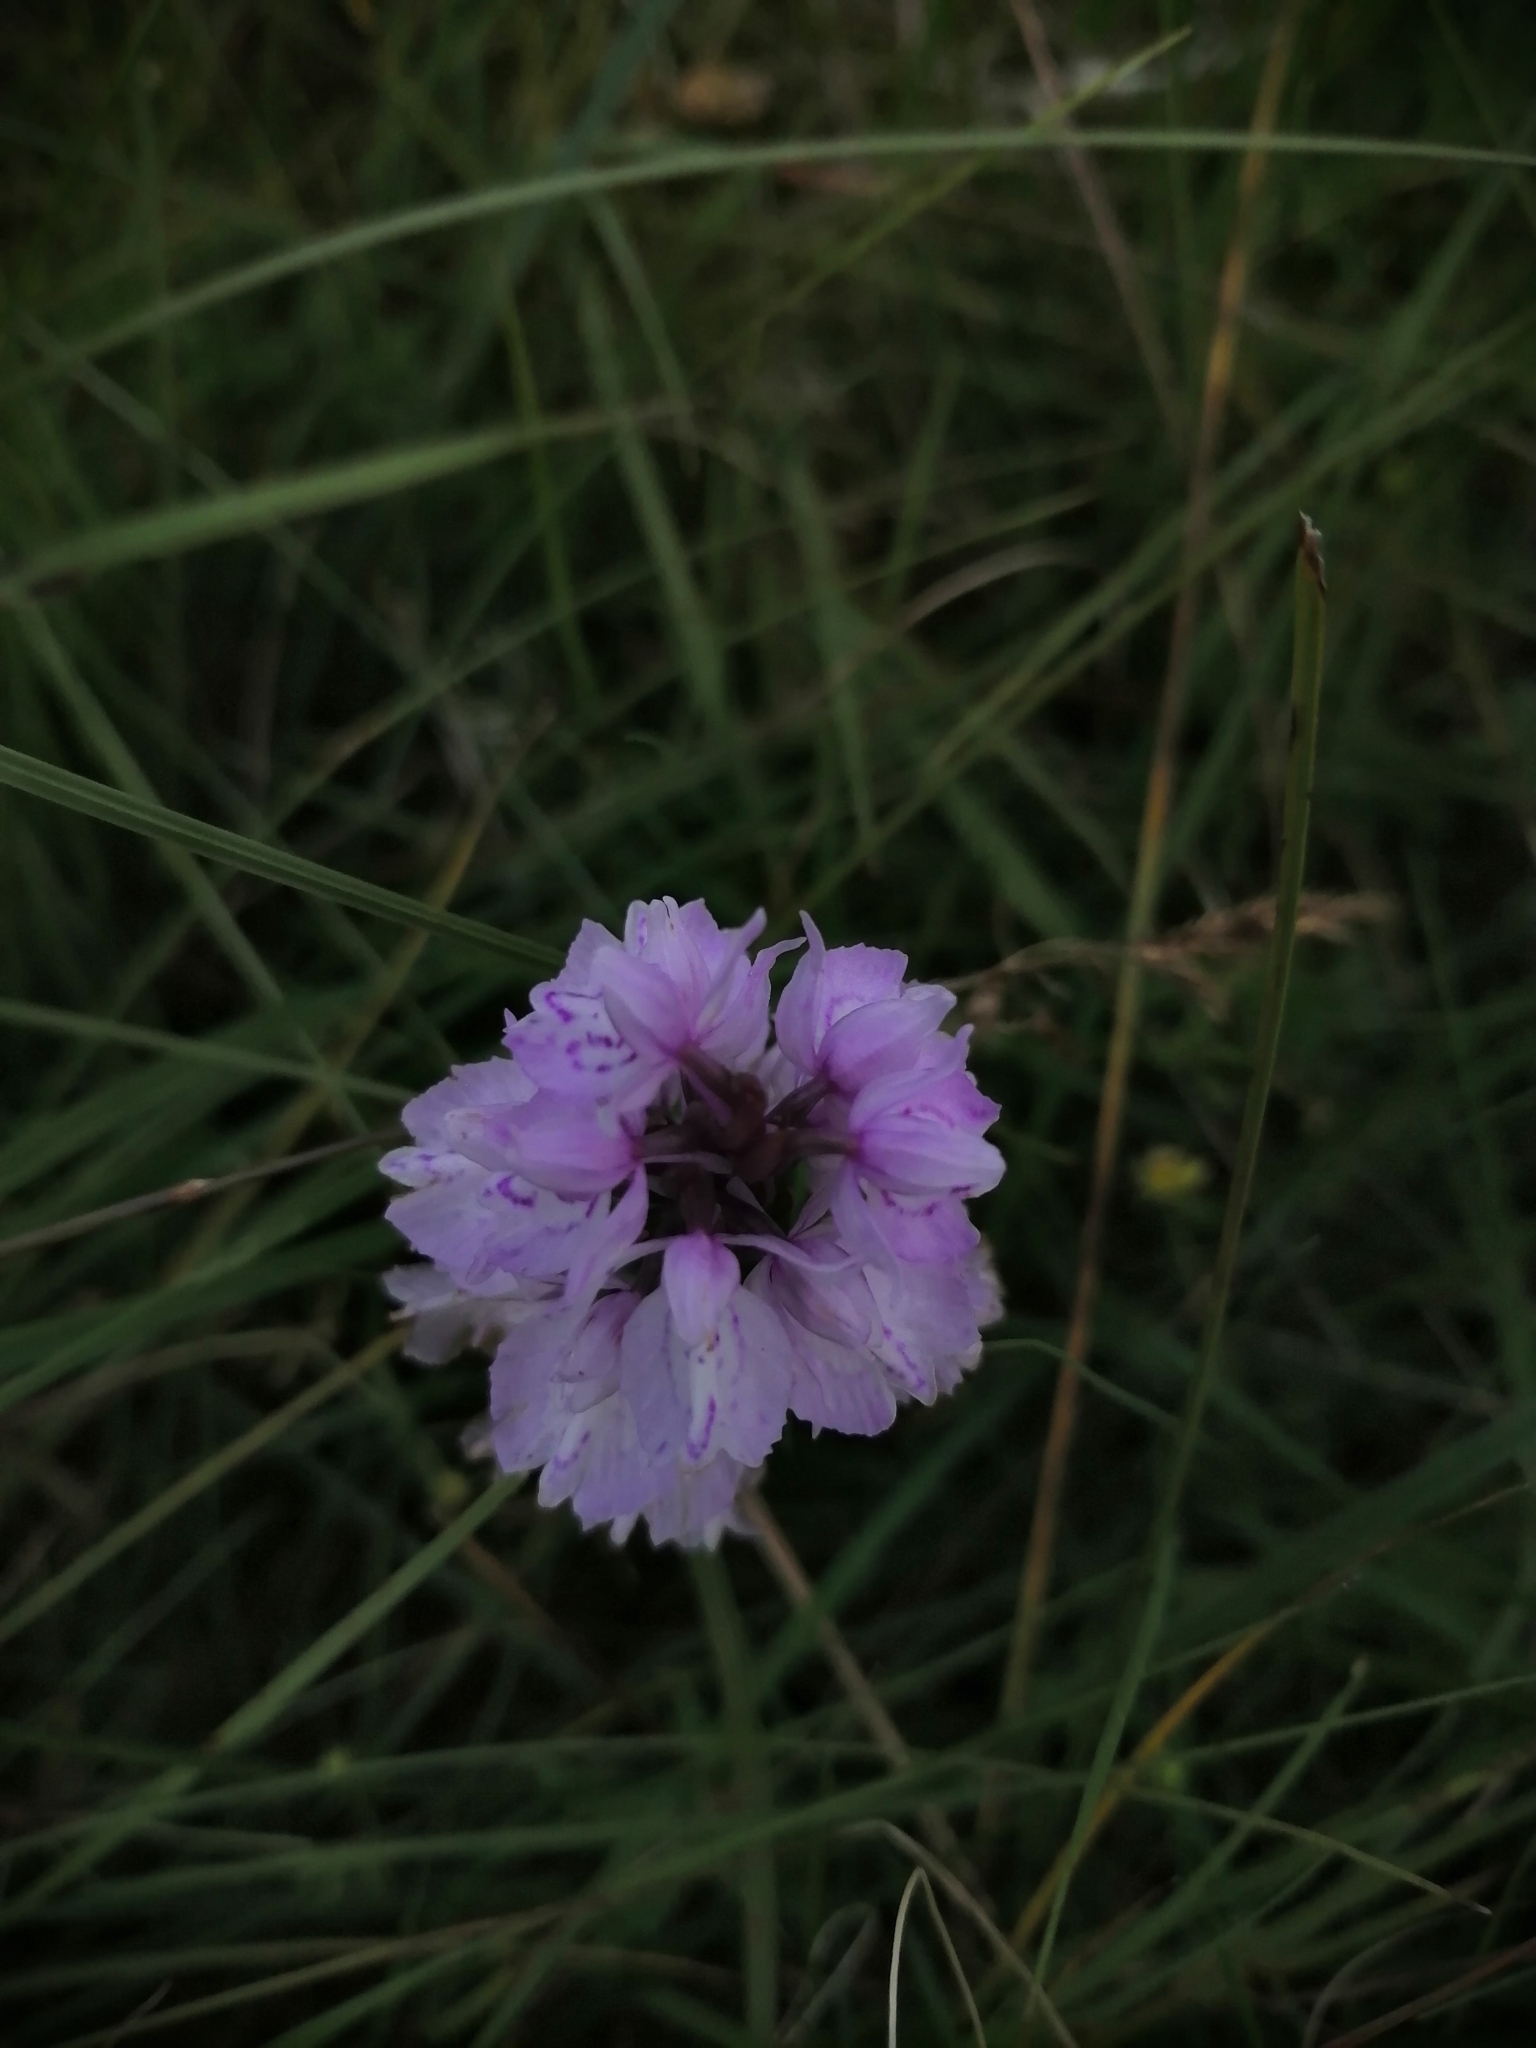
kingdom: Plantae
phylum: Tracheophyta
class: Liliopsida
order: Asparagales
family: Orchidaceae
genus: Dactylorhiza
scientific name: Dactylorhiza maculata
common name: Heath spotted-orchid
